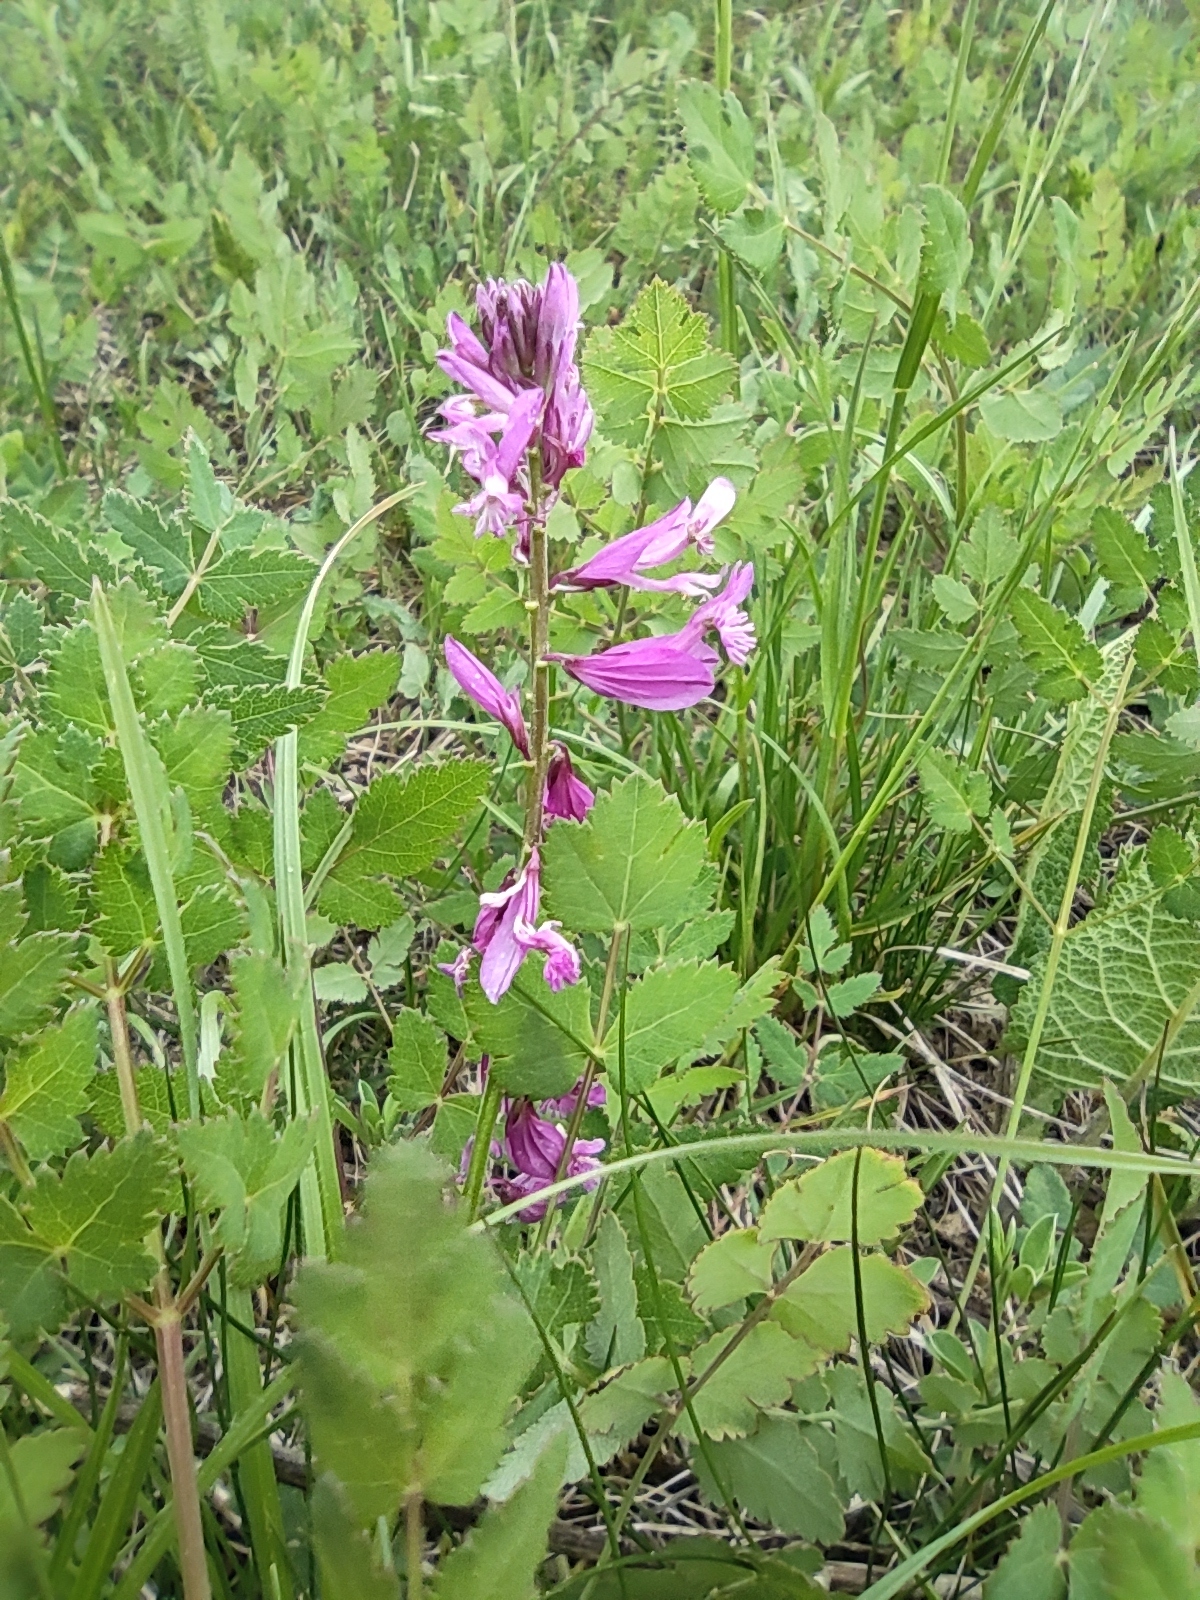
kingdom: Plantae
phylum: Tracheophyta
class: Magnoliopsida
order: Fabales
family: Polygalaceae
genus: Polygala
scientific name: Polygala major
